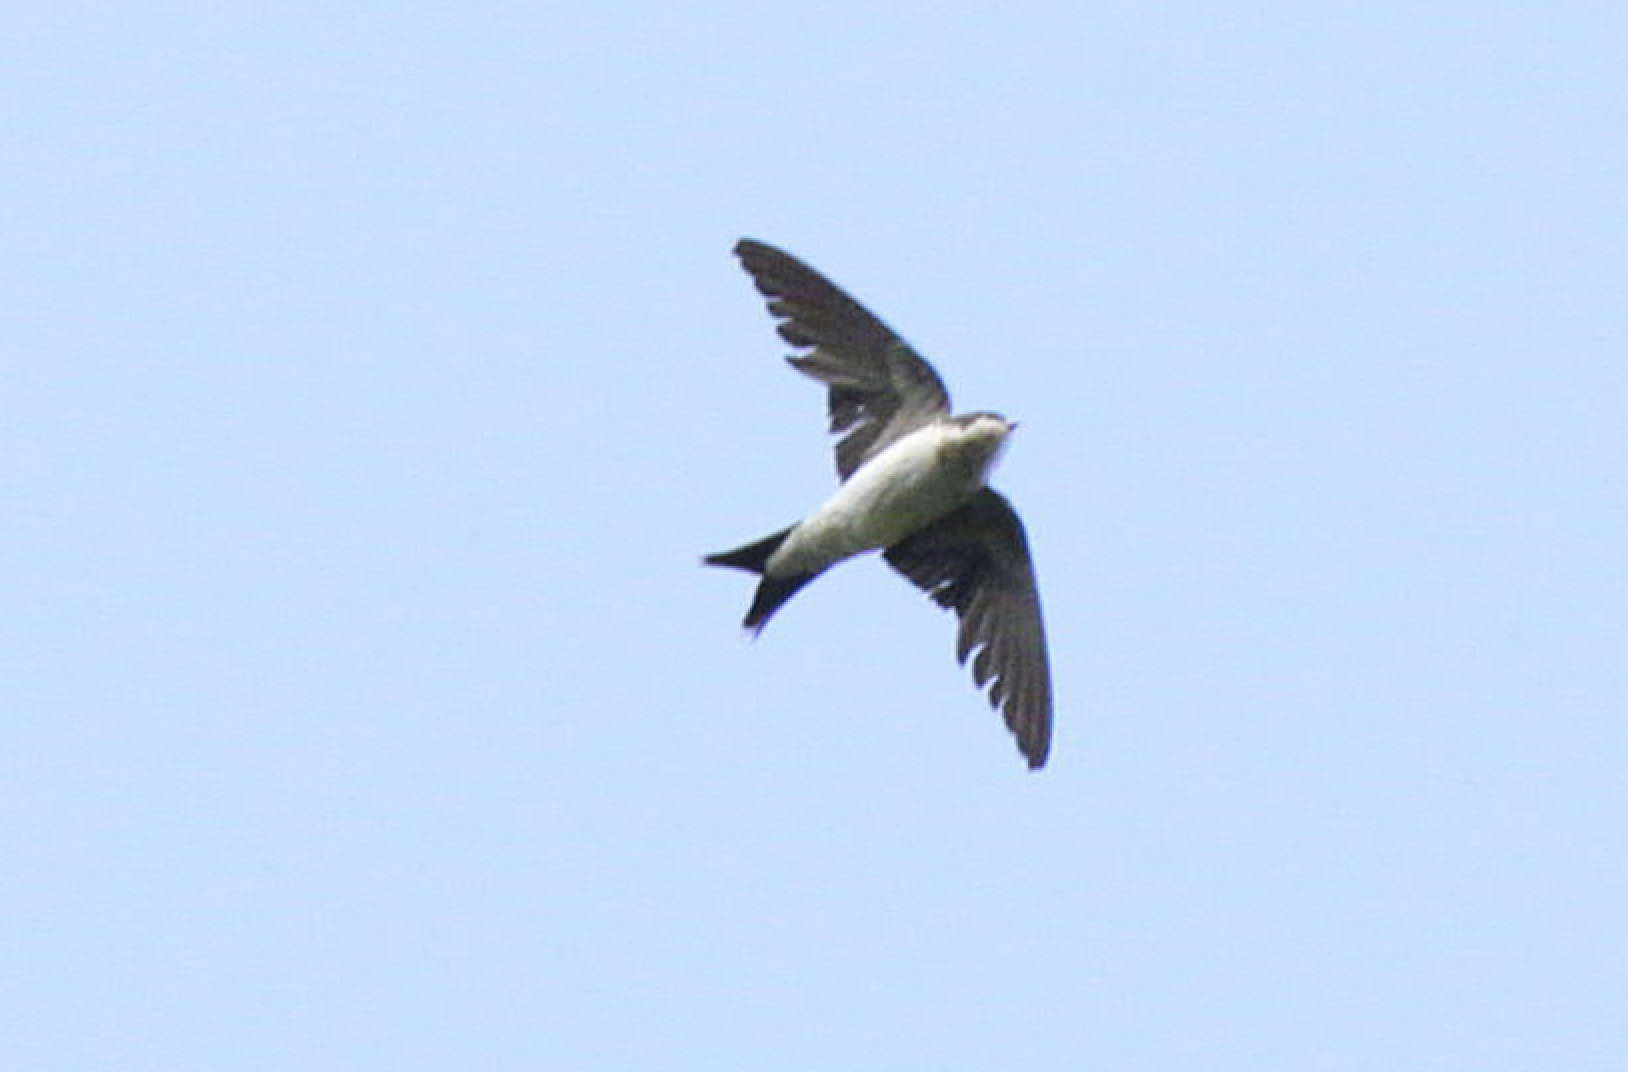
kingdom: Animalia
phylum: Chordata
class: Aves
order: Passeriformes
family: Hirundinidae
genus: Delichon
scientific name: Delichon urbicum
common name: Common house martin
